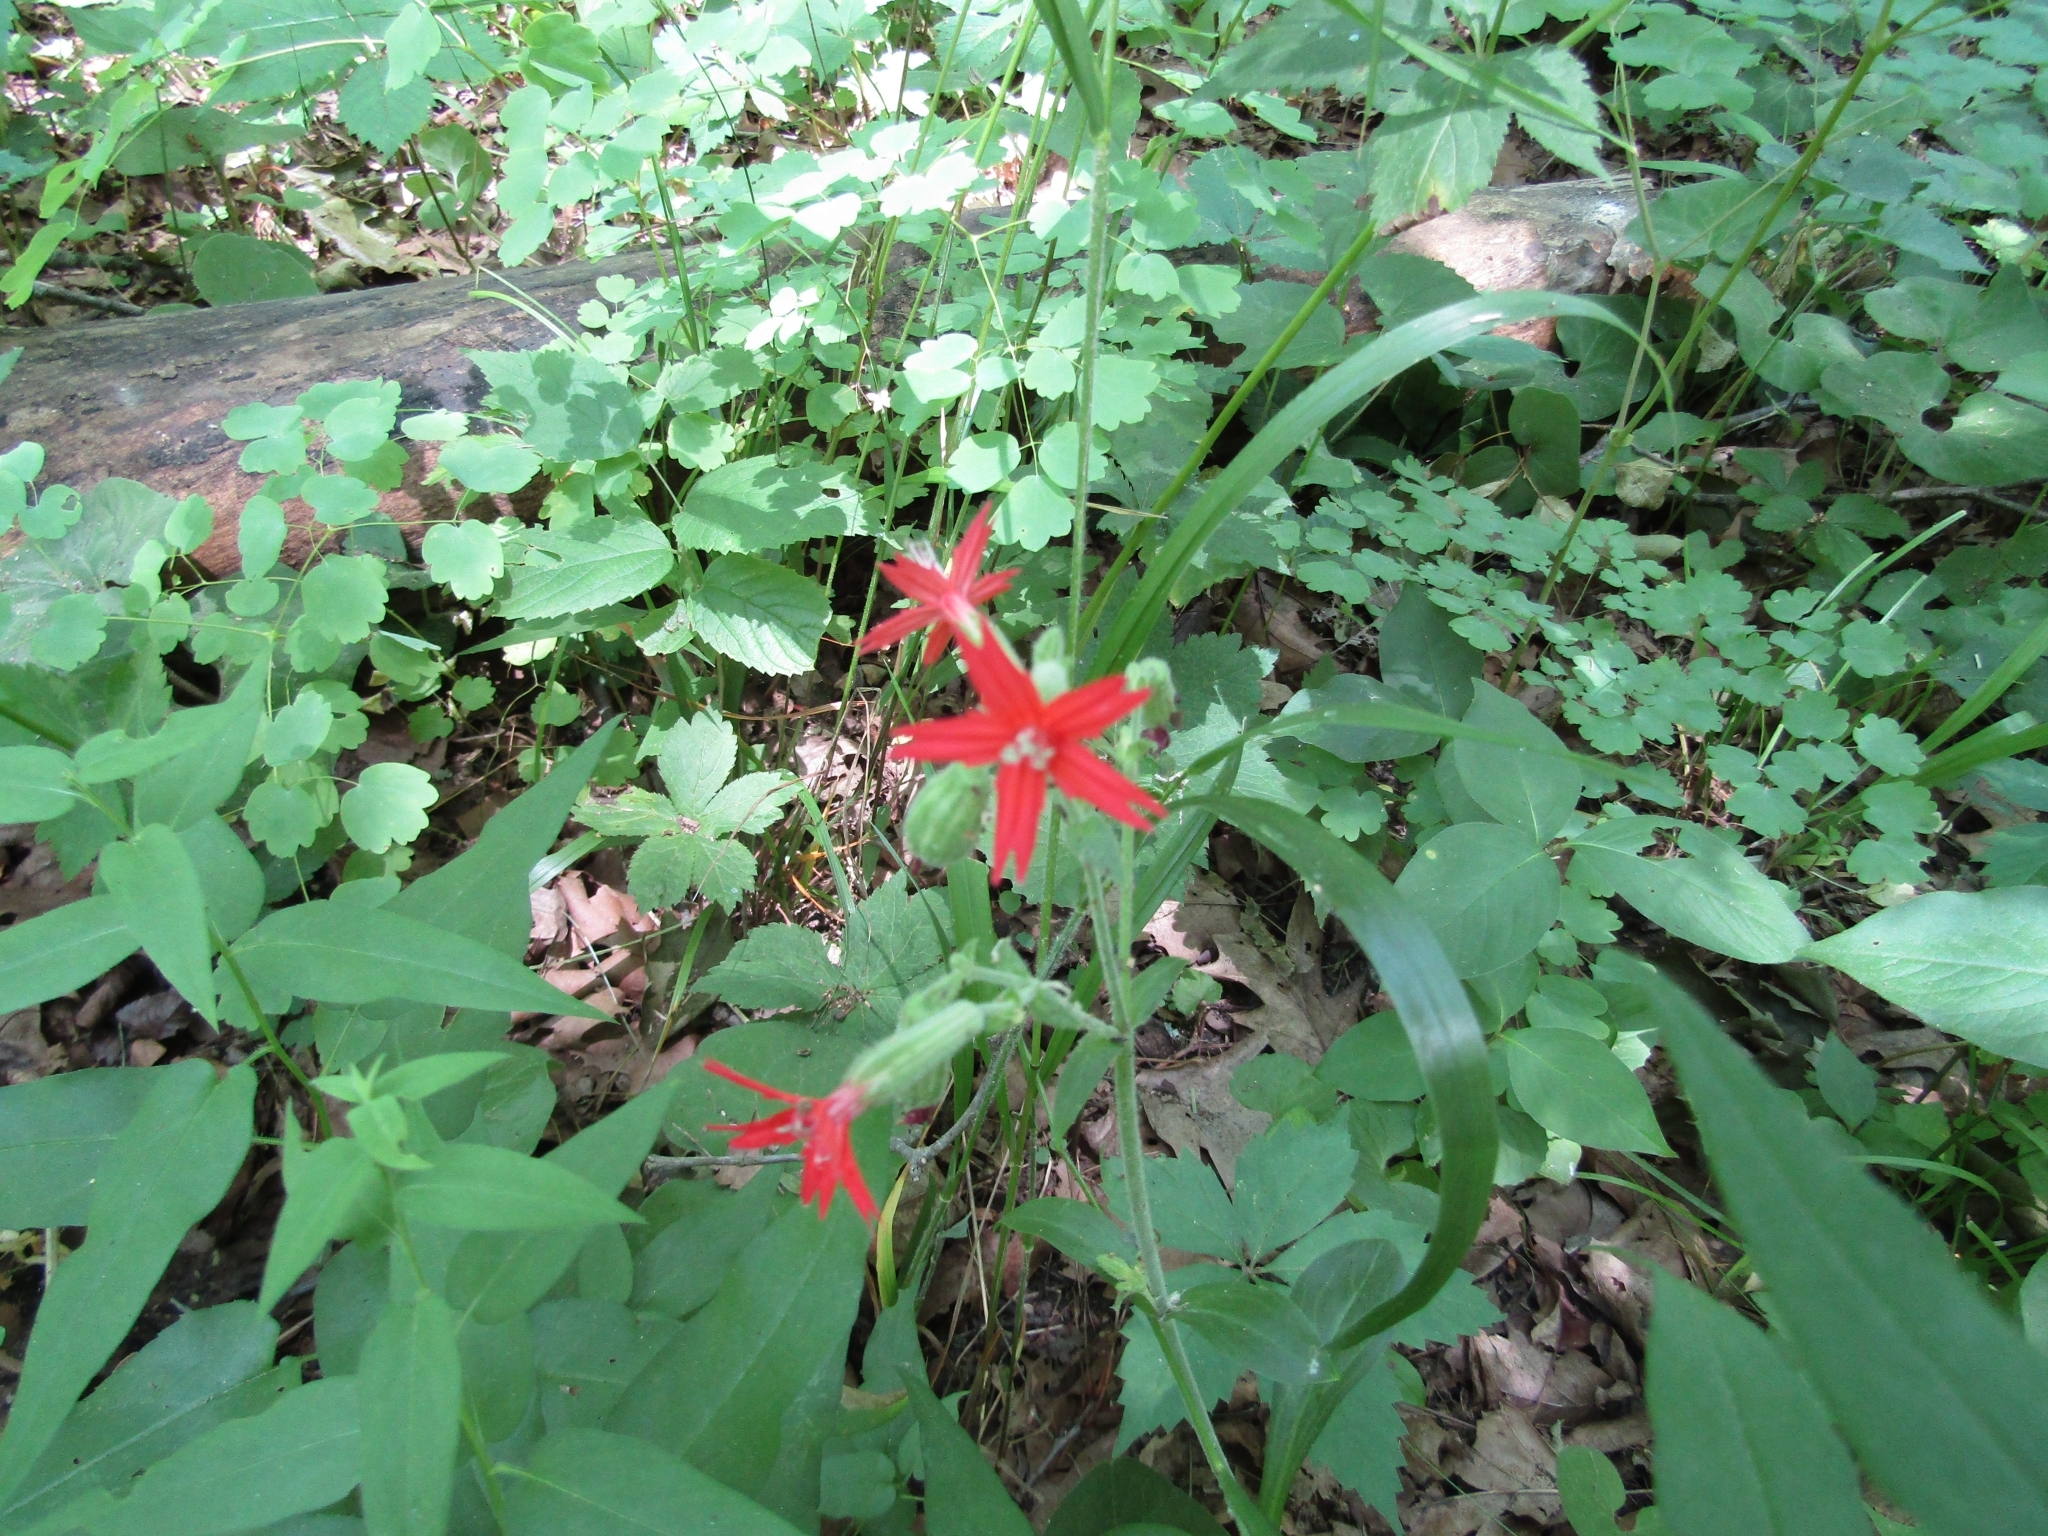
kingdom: Plantae
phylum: Tracheophyta
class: Magnoliopsida
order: Caryophyllales
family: Caryophyllaceae
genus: Silene
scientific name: Silene virginica
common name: Fire-pink
